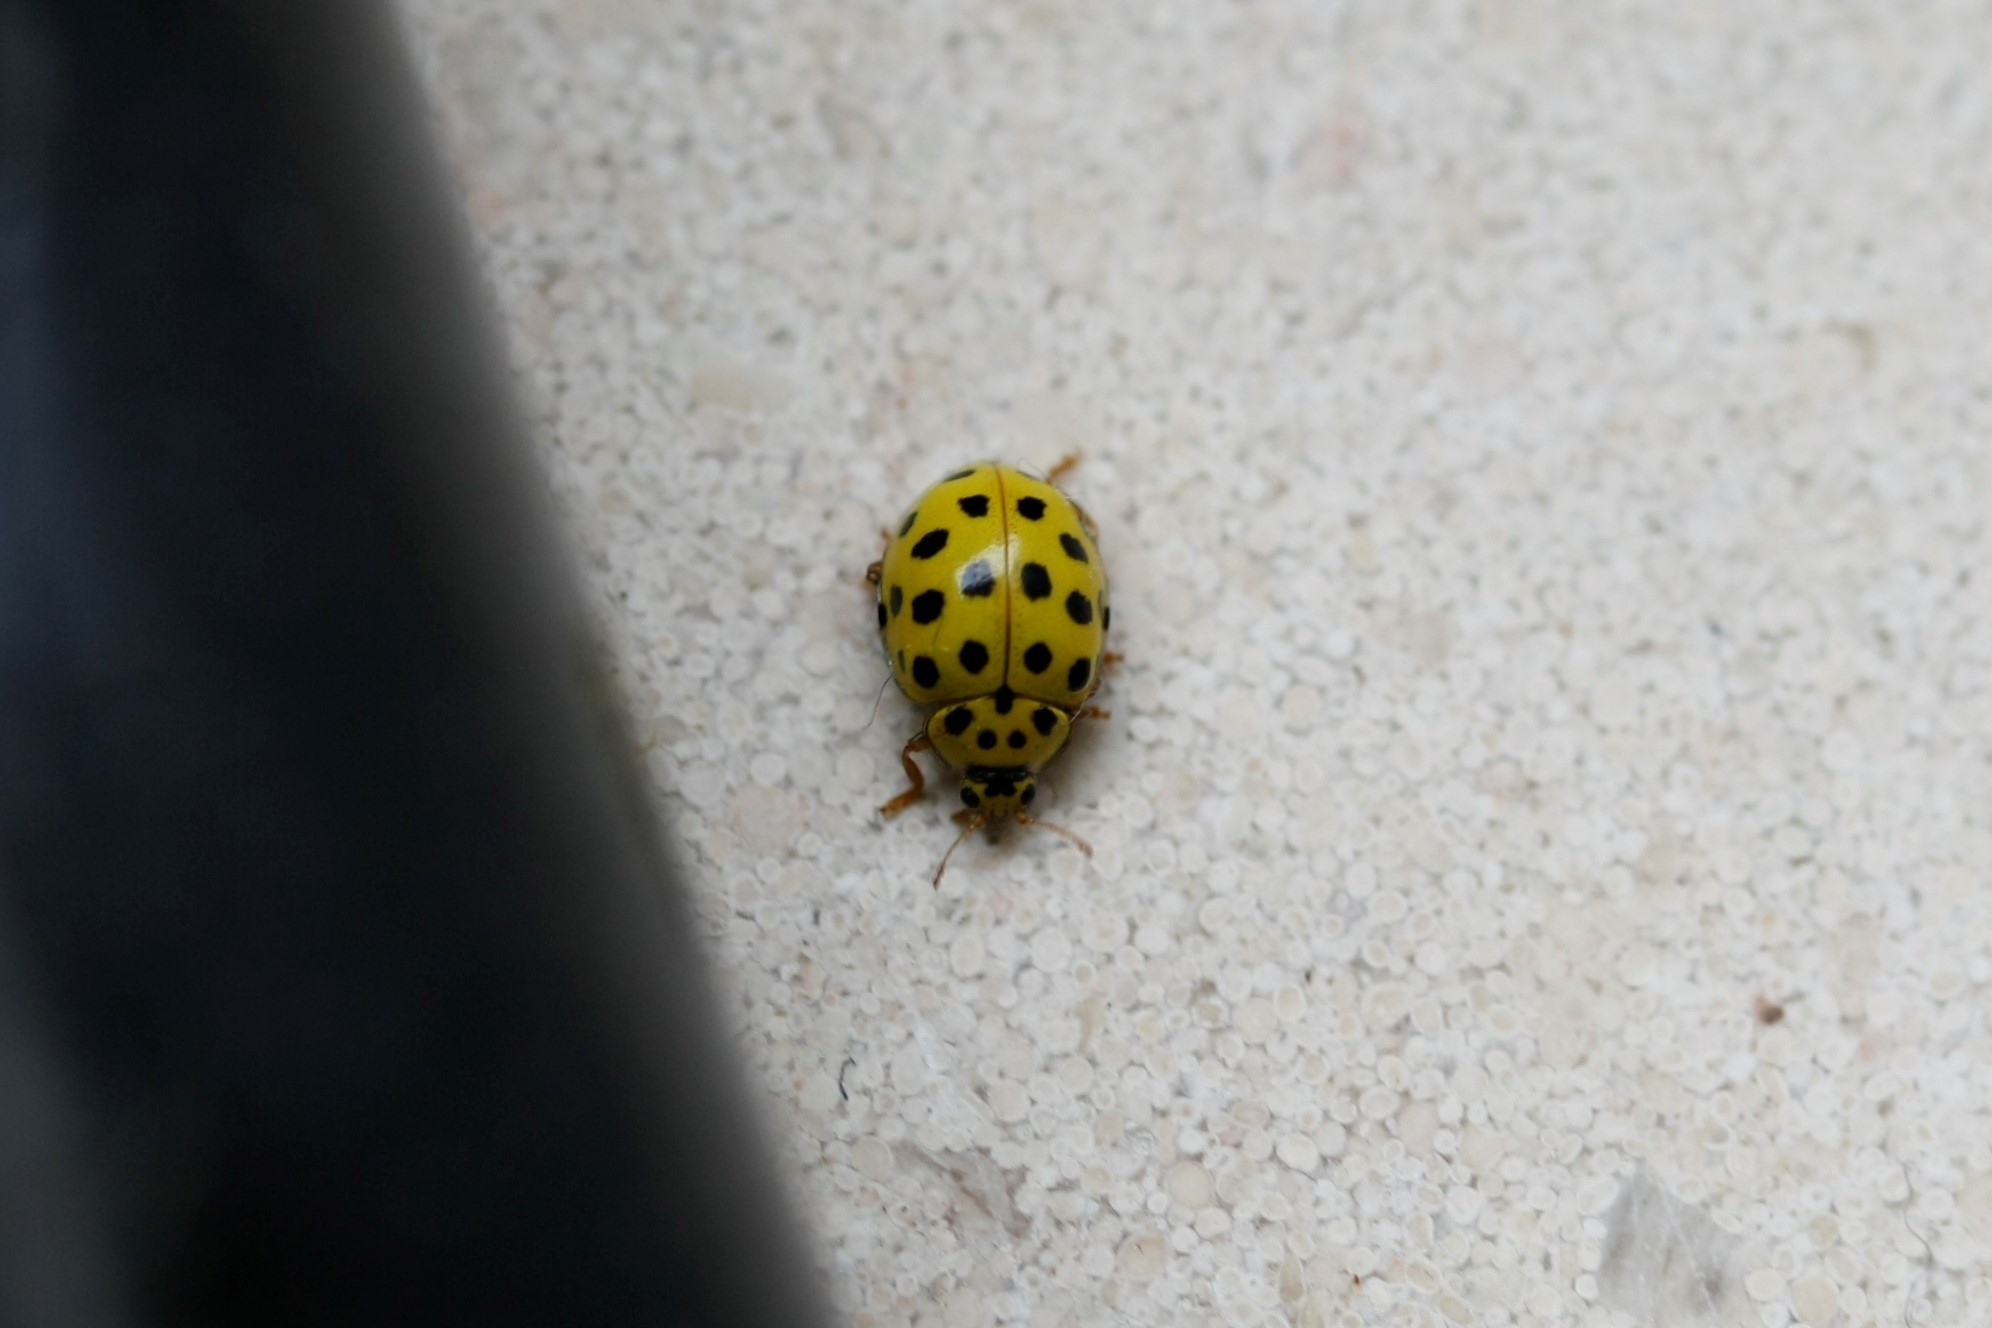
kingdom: Animalia
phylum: Arthropoda
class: Insecta
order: Coleoptera
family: Coccinellidae
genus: Psyllobora
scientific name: Psyllobora vigintiduopunctata
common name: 22-spot ladybird
